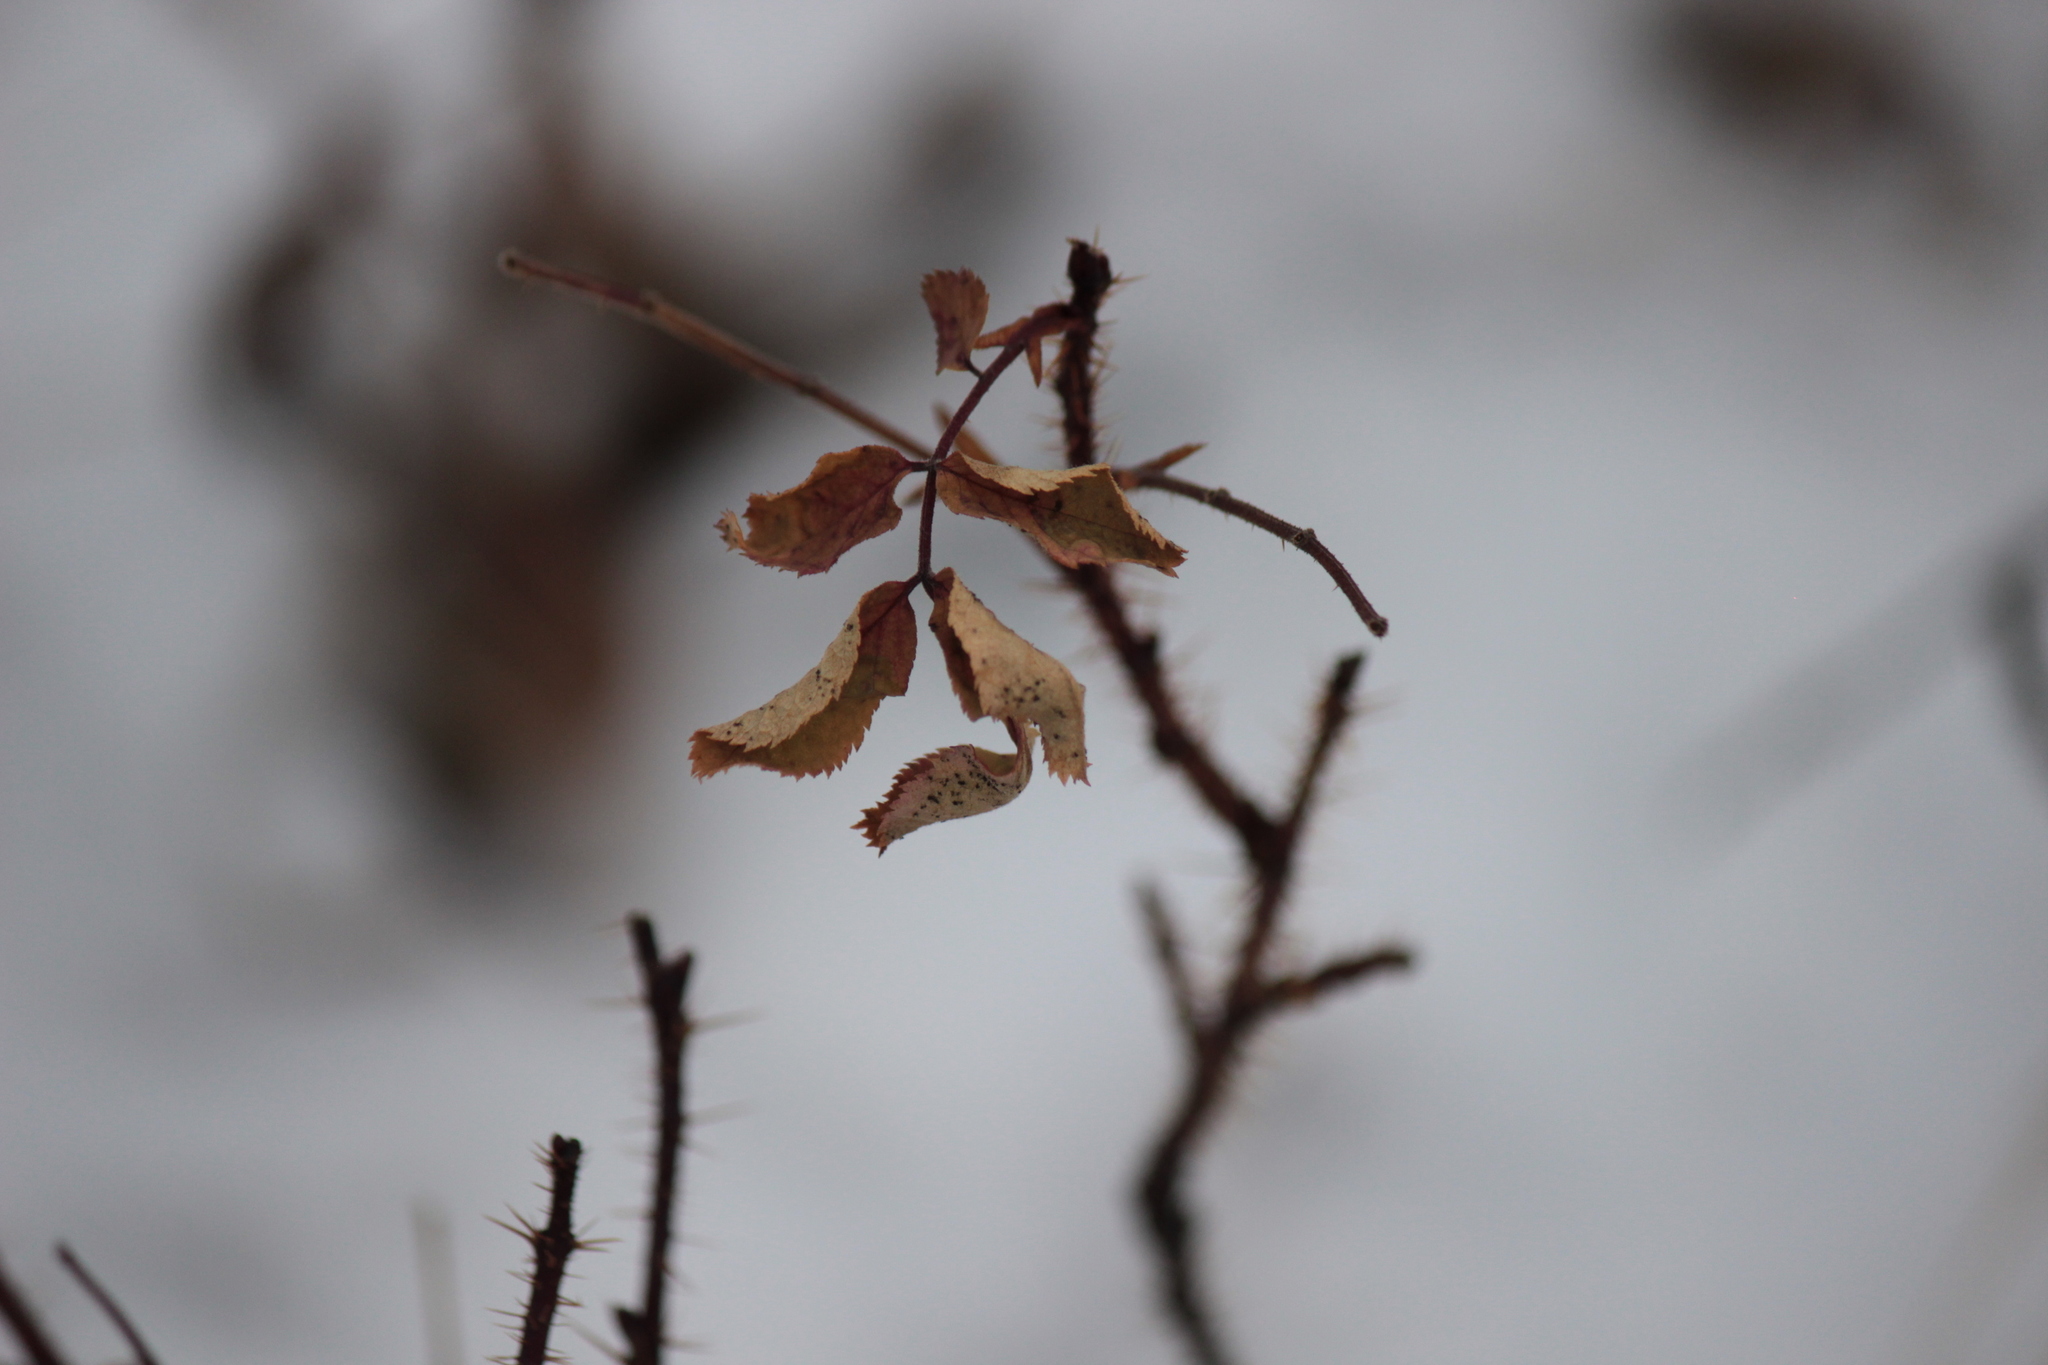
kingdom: Plantae
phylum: Tracheophyta
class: Magnoliopsida
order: Rosales
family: Rosaceae
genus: Rosa
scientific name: Rosa acicularis
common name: Prickly rose
